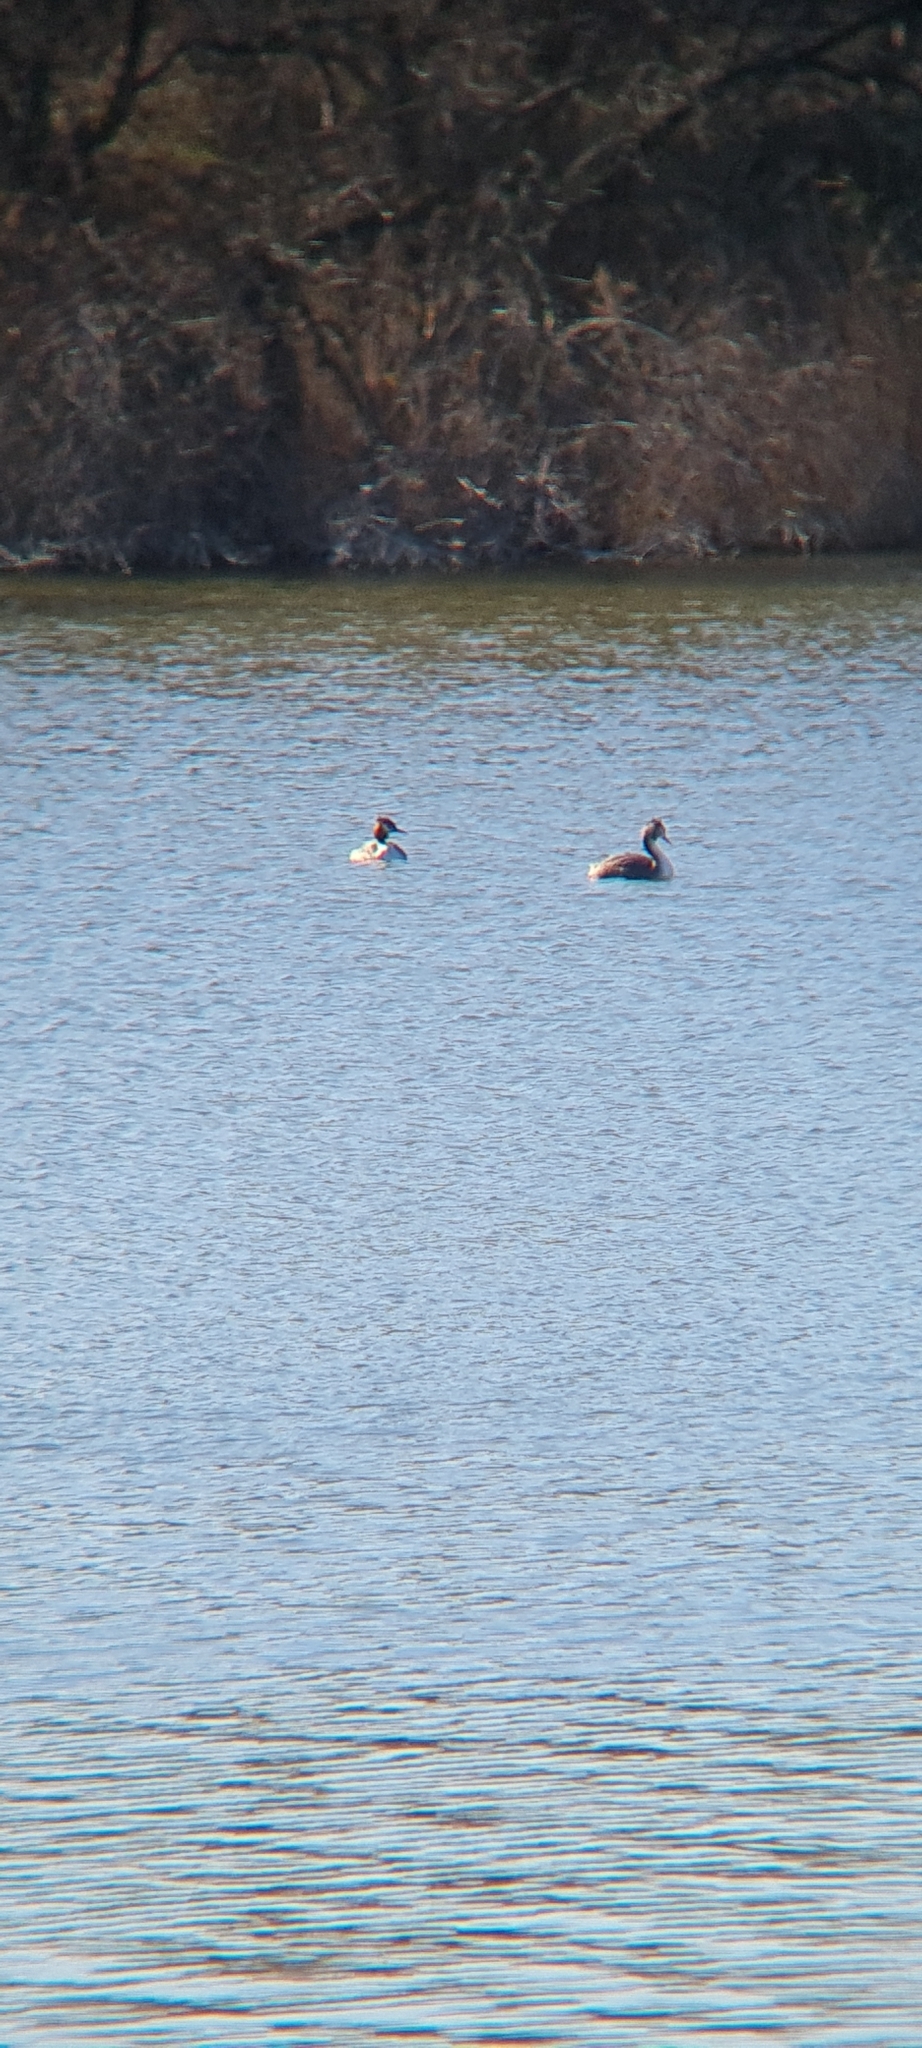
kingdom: Animalia
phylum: Chordata
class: Aves
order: Podicipediformes
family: Podicipedidae
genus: Podiceps
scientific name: Podiceps cristatus
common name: Great crested grebe
